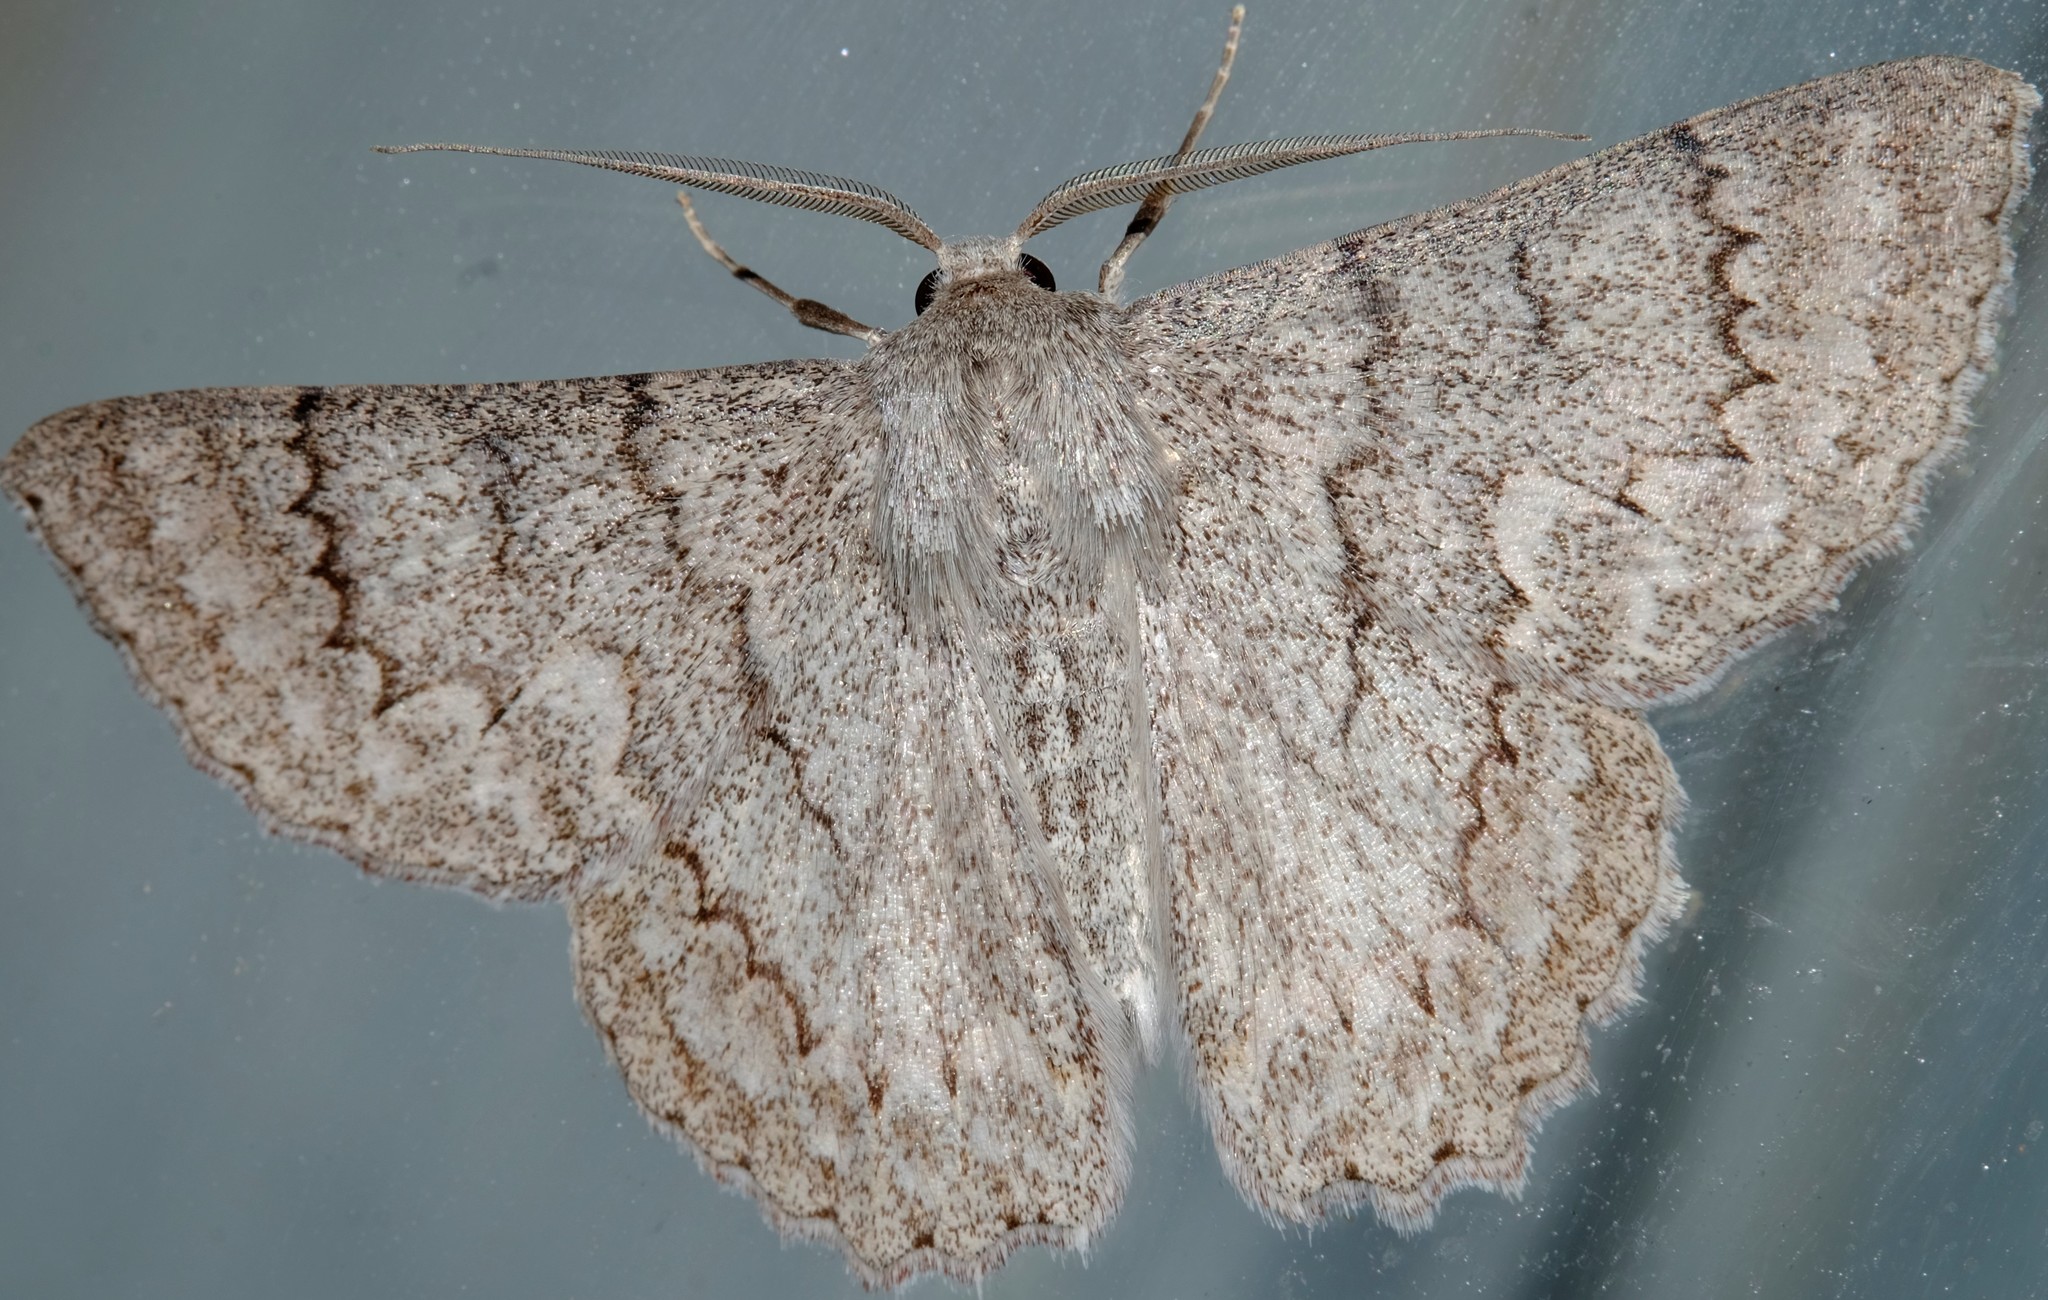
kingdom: Animalia
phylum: Arthropoda
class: Insecta
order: Lepidoptera
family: Geometridae
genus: Crypsiphona
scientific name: Crypsiphona ocultaria
